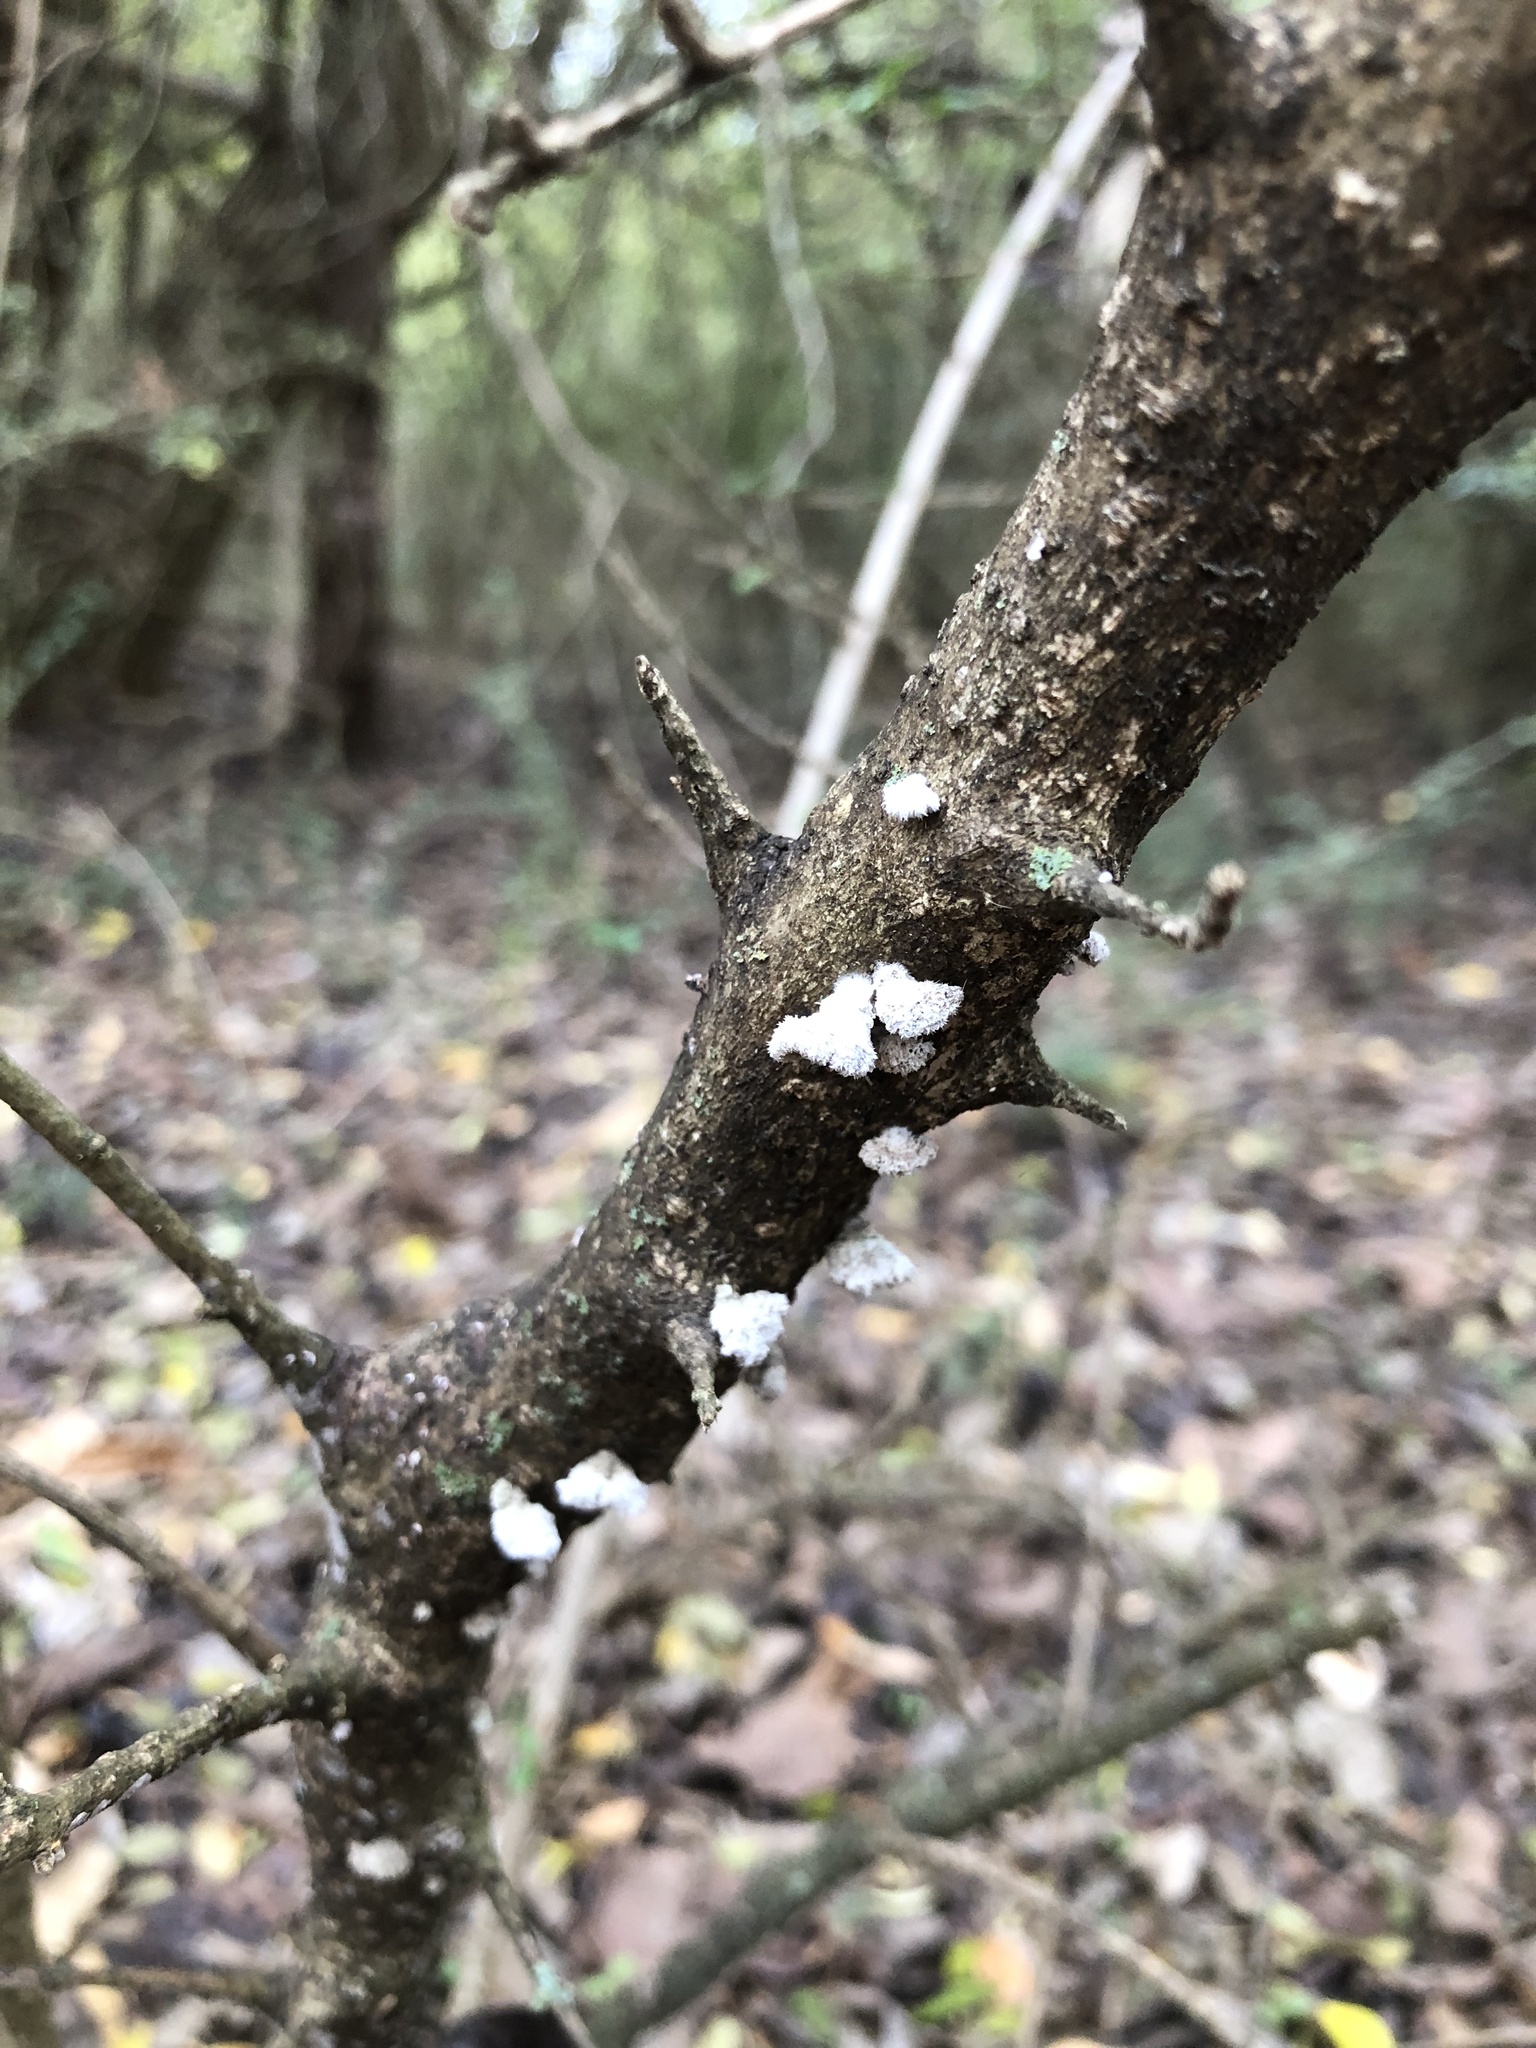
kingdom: Fungi
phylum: Basidiomycota
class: Agaricomycetes
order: Agaricales
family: Schizophyllaceae
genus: Schizophyllum
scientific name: Schizophyllum commune
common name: Common porecrust
